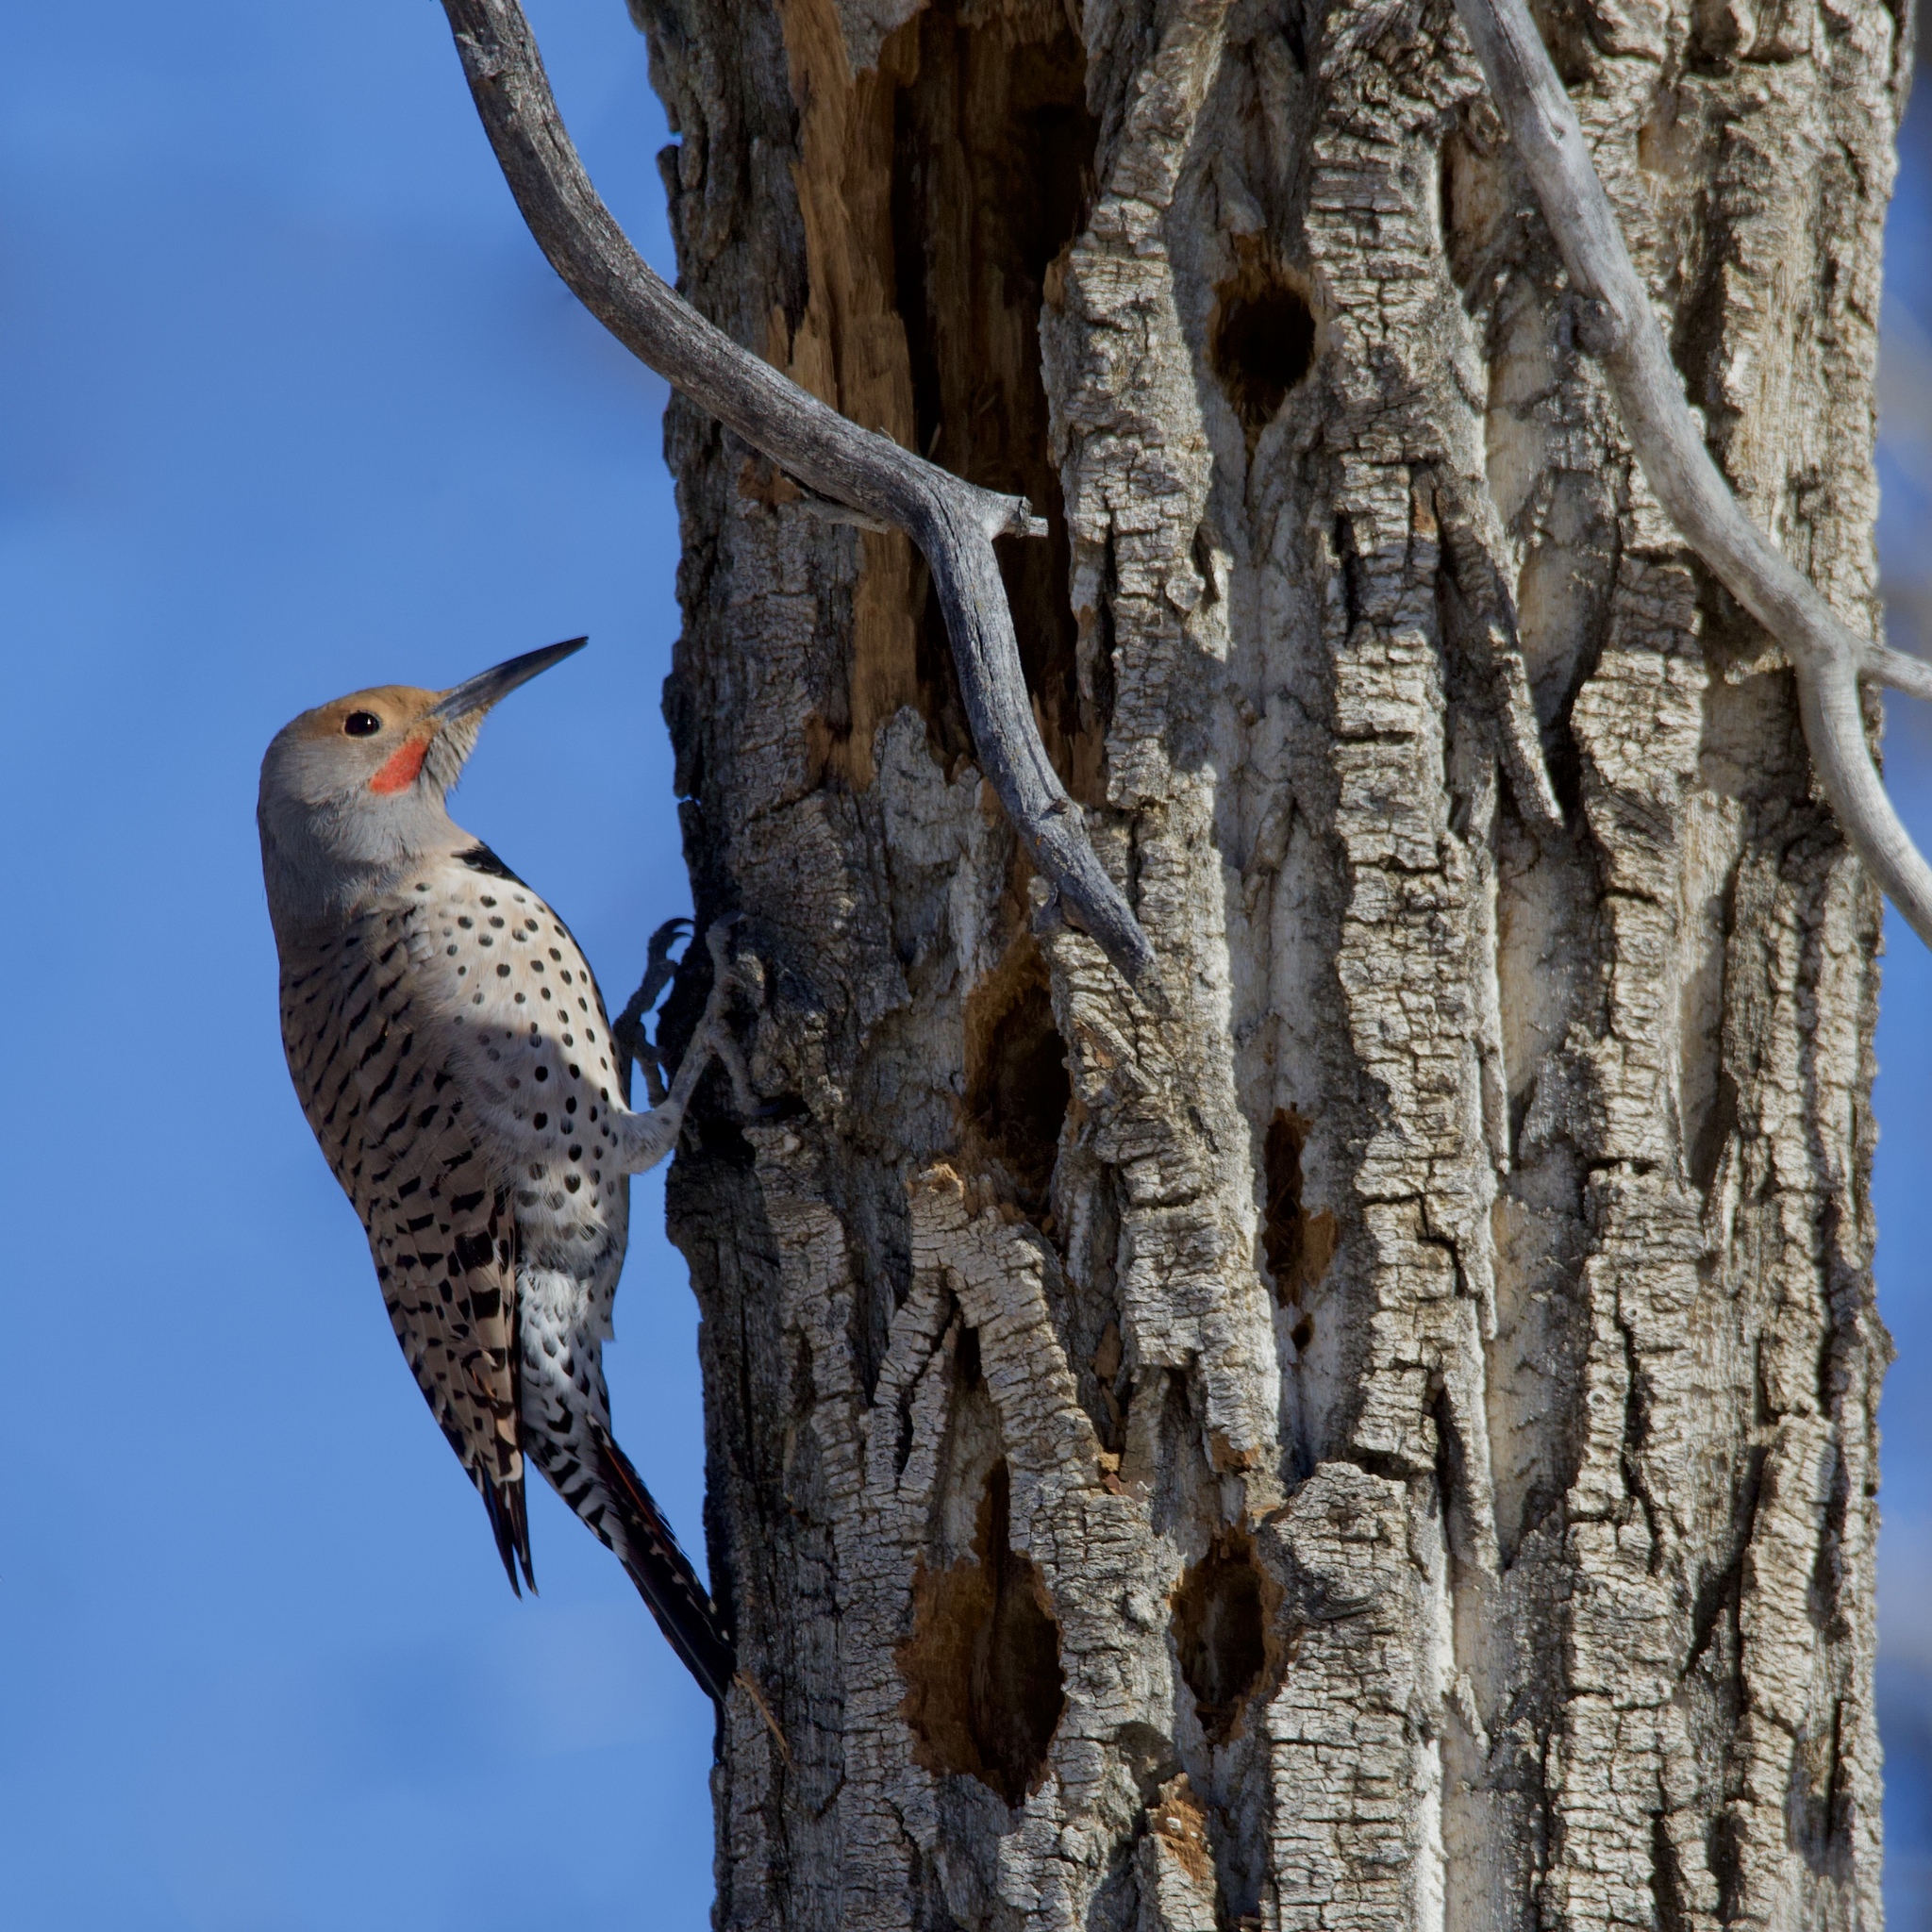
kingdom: Animalia
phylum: Chordata
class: Aves
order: Piciformes
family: Picidae
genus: Colaptes
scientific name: Colaptes auratus
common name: Northern flicker
